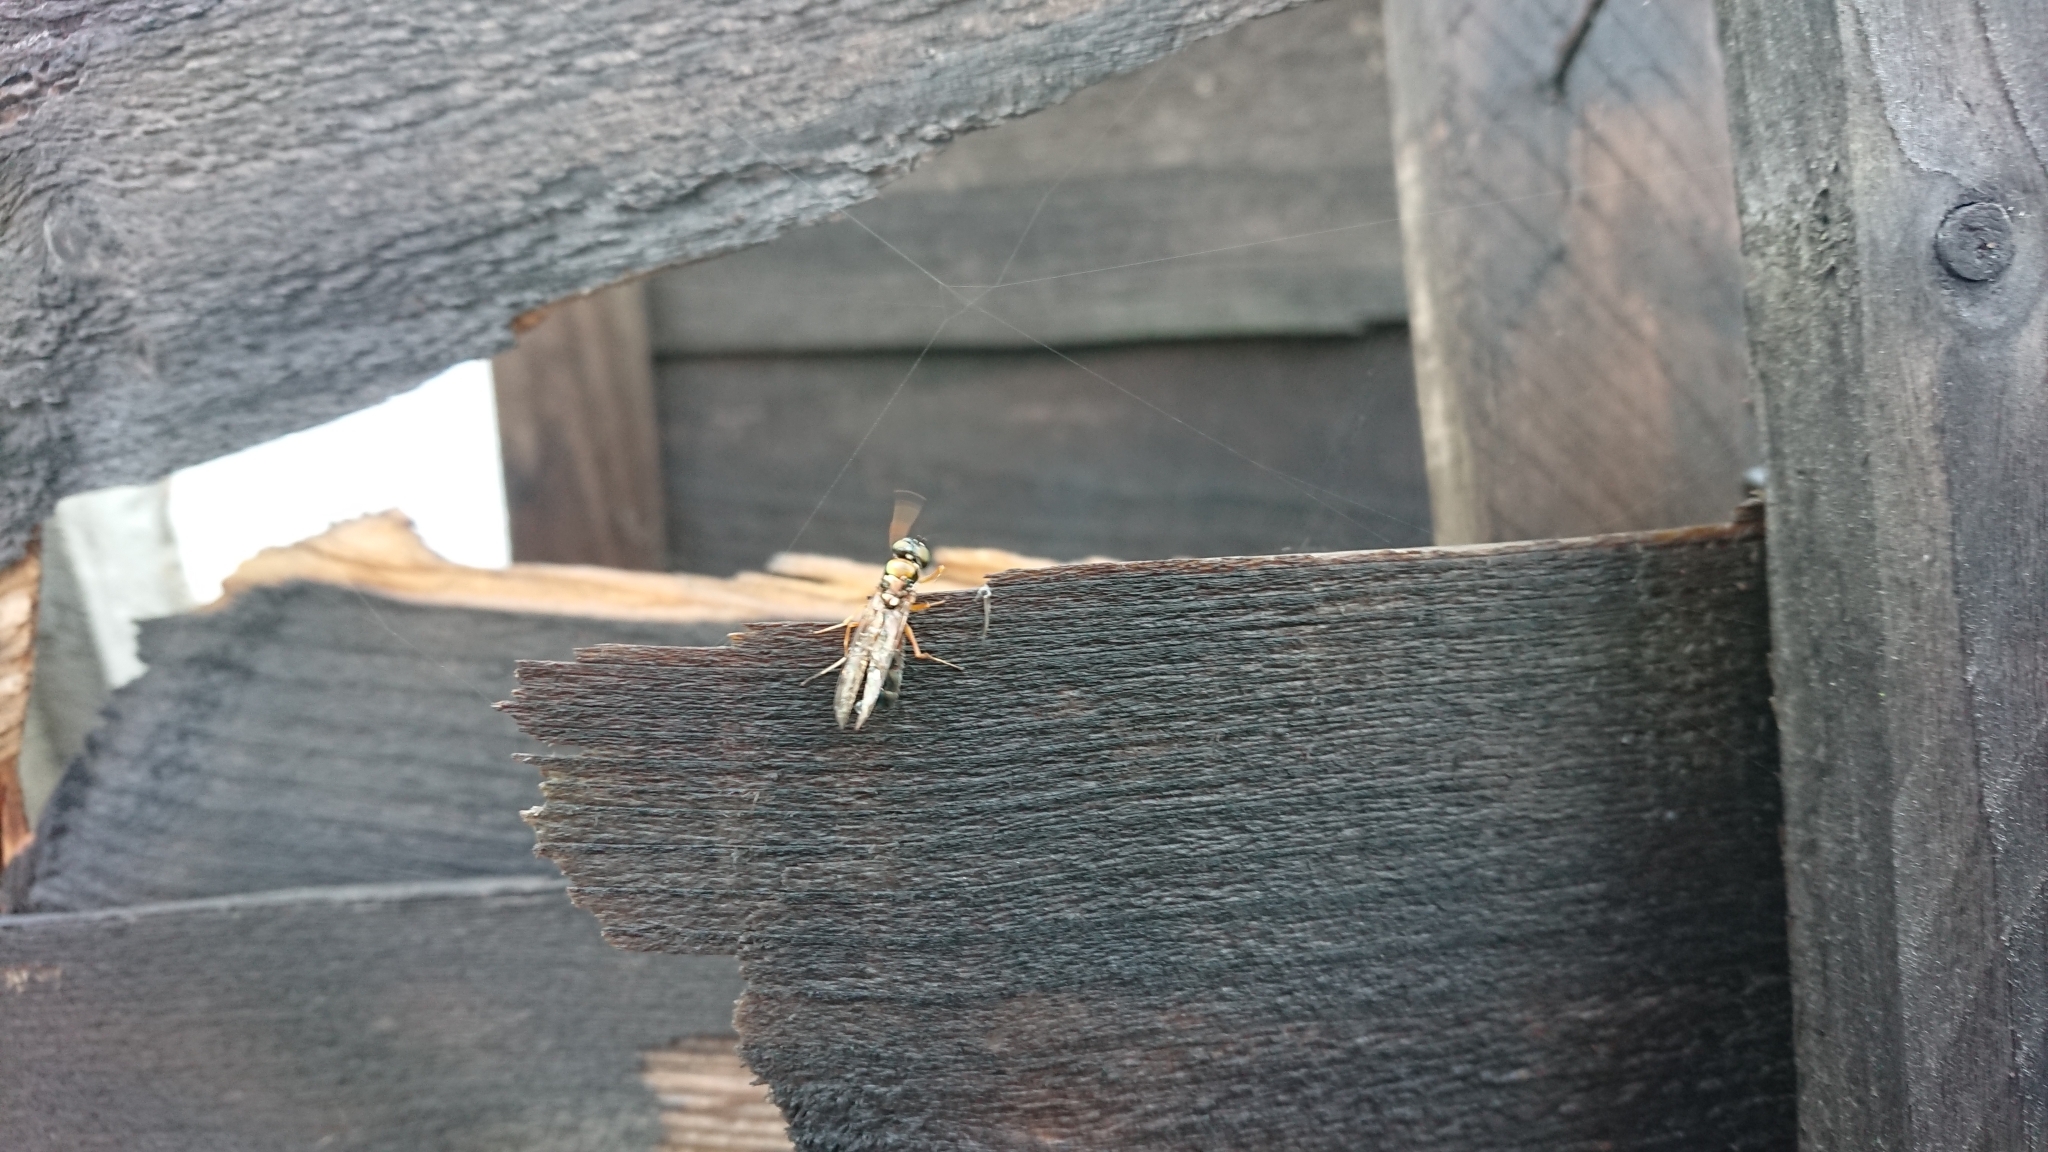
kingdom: Animalia
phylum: Arthropoda
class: Insecta
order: Diptera
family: Stratiomyidae
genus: Sargus
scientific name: Sargus bipunctatus
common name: Twin-spot centurion
